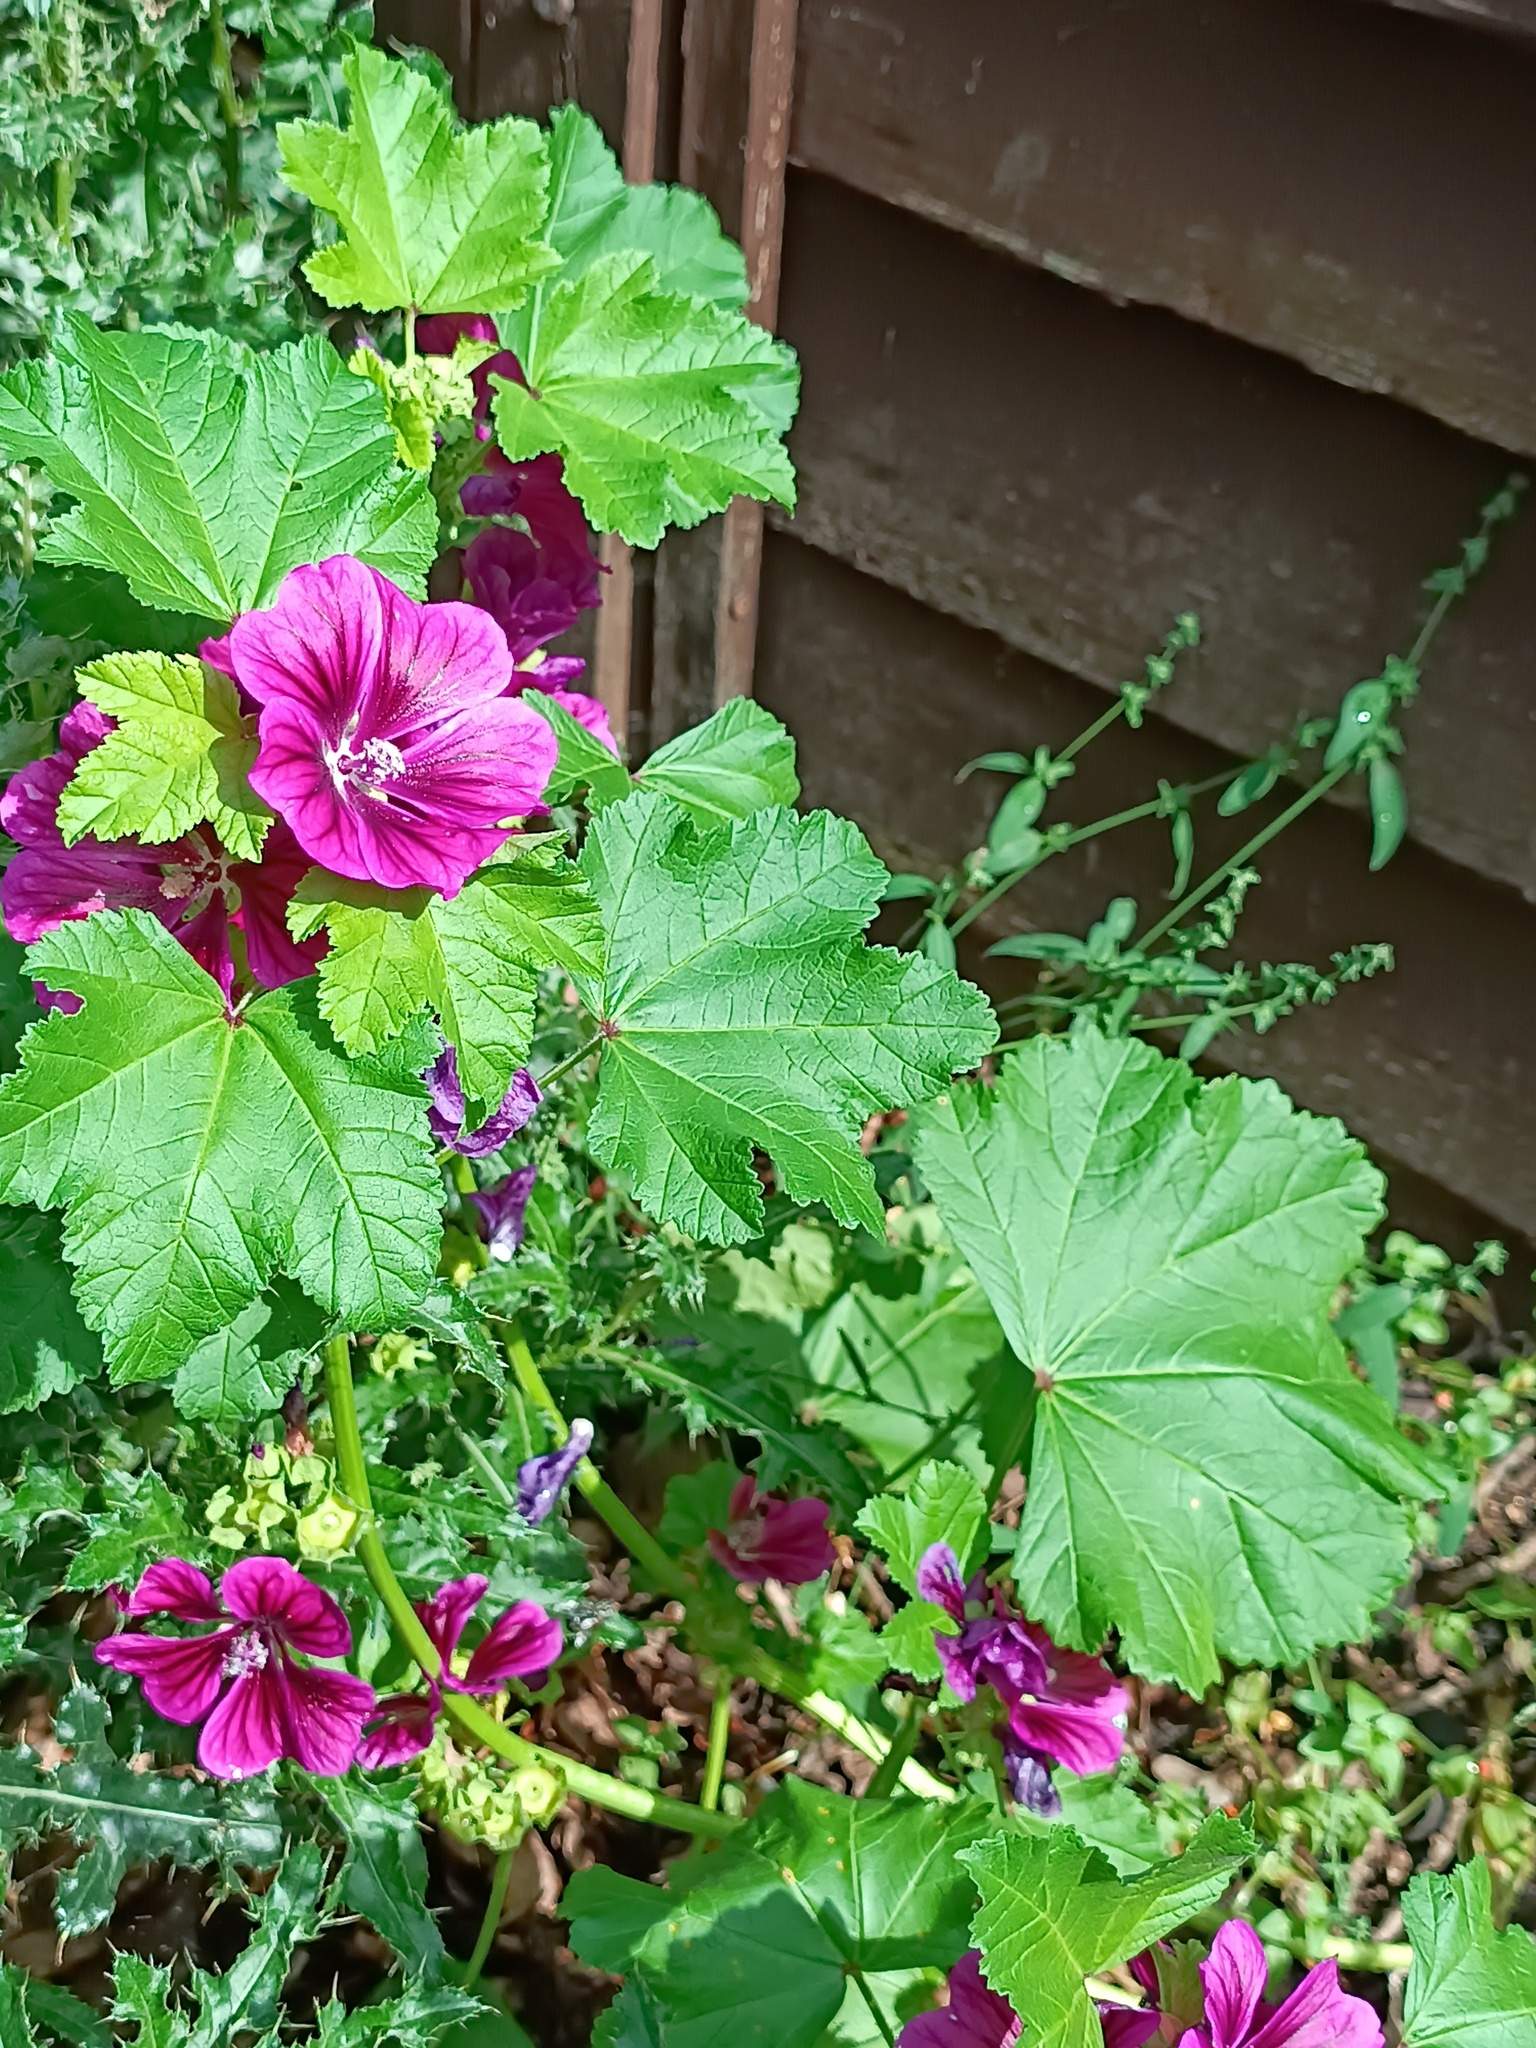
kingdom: Plantae
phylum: Tracheophyta
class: Magnoliopsida
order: Malvales
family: Malvaceae
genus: Malva
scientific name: Malva sylvestris
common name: Common mallow
